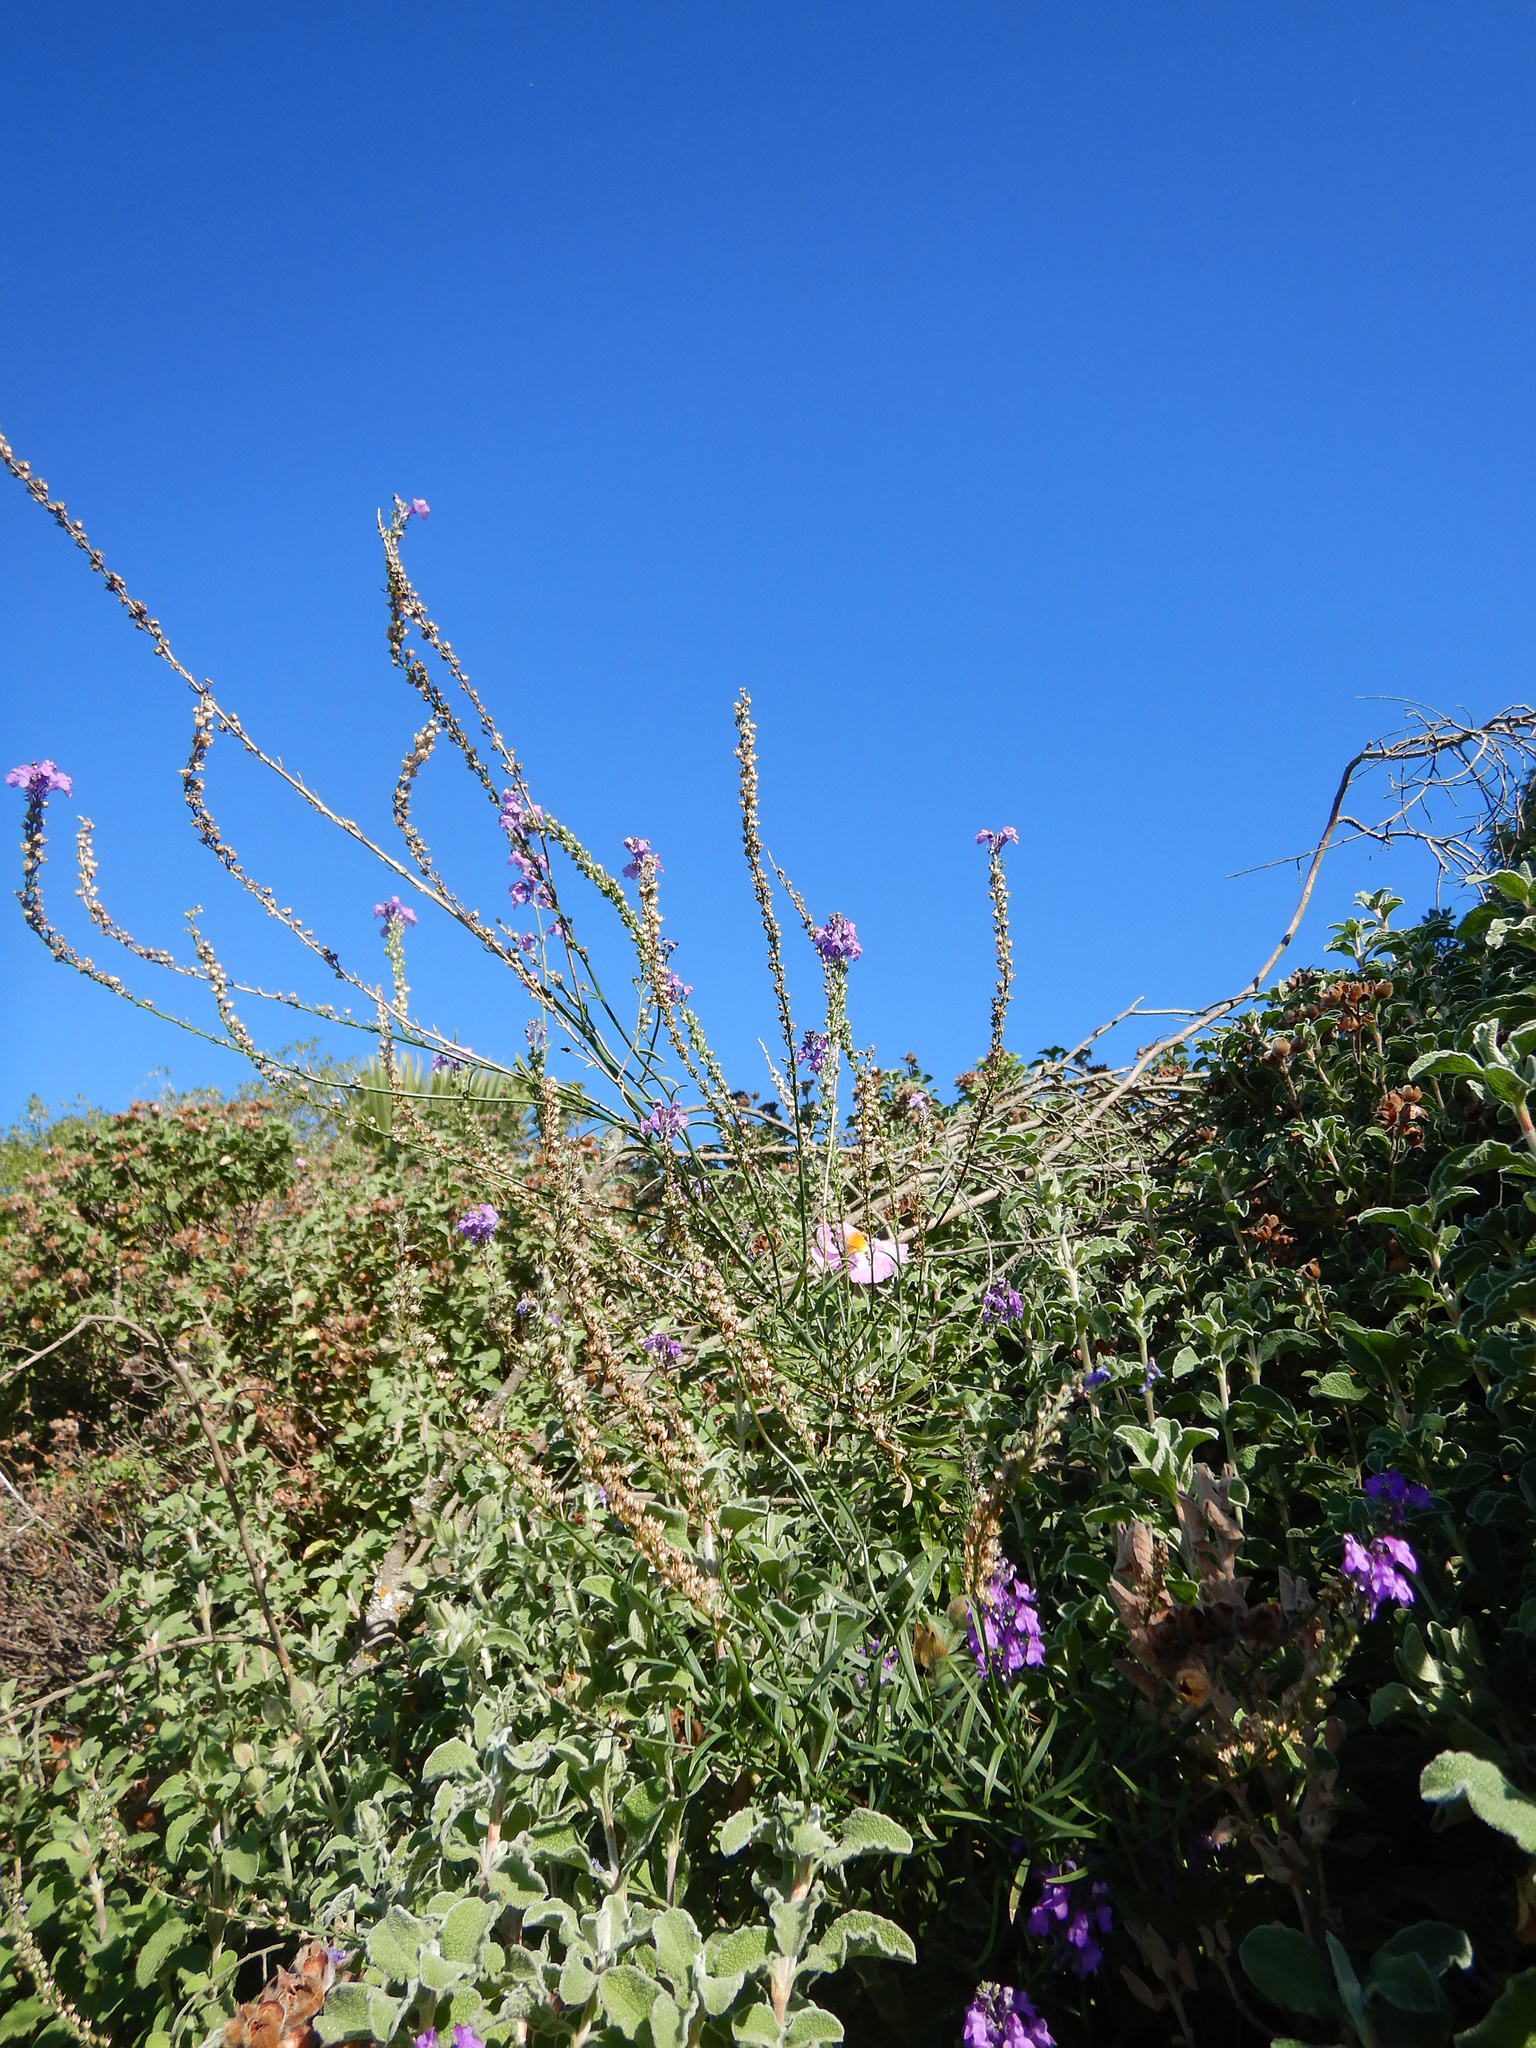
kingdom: Plantae
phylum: Tracheophyta
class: Magnoliopsida
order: Lamiales
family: Plantaginaceae
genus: Linaria
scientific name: Linaria purpurea
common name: Purple toadflax
